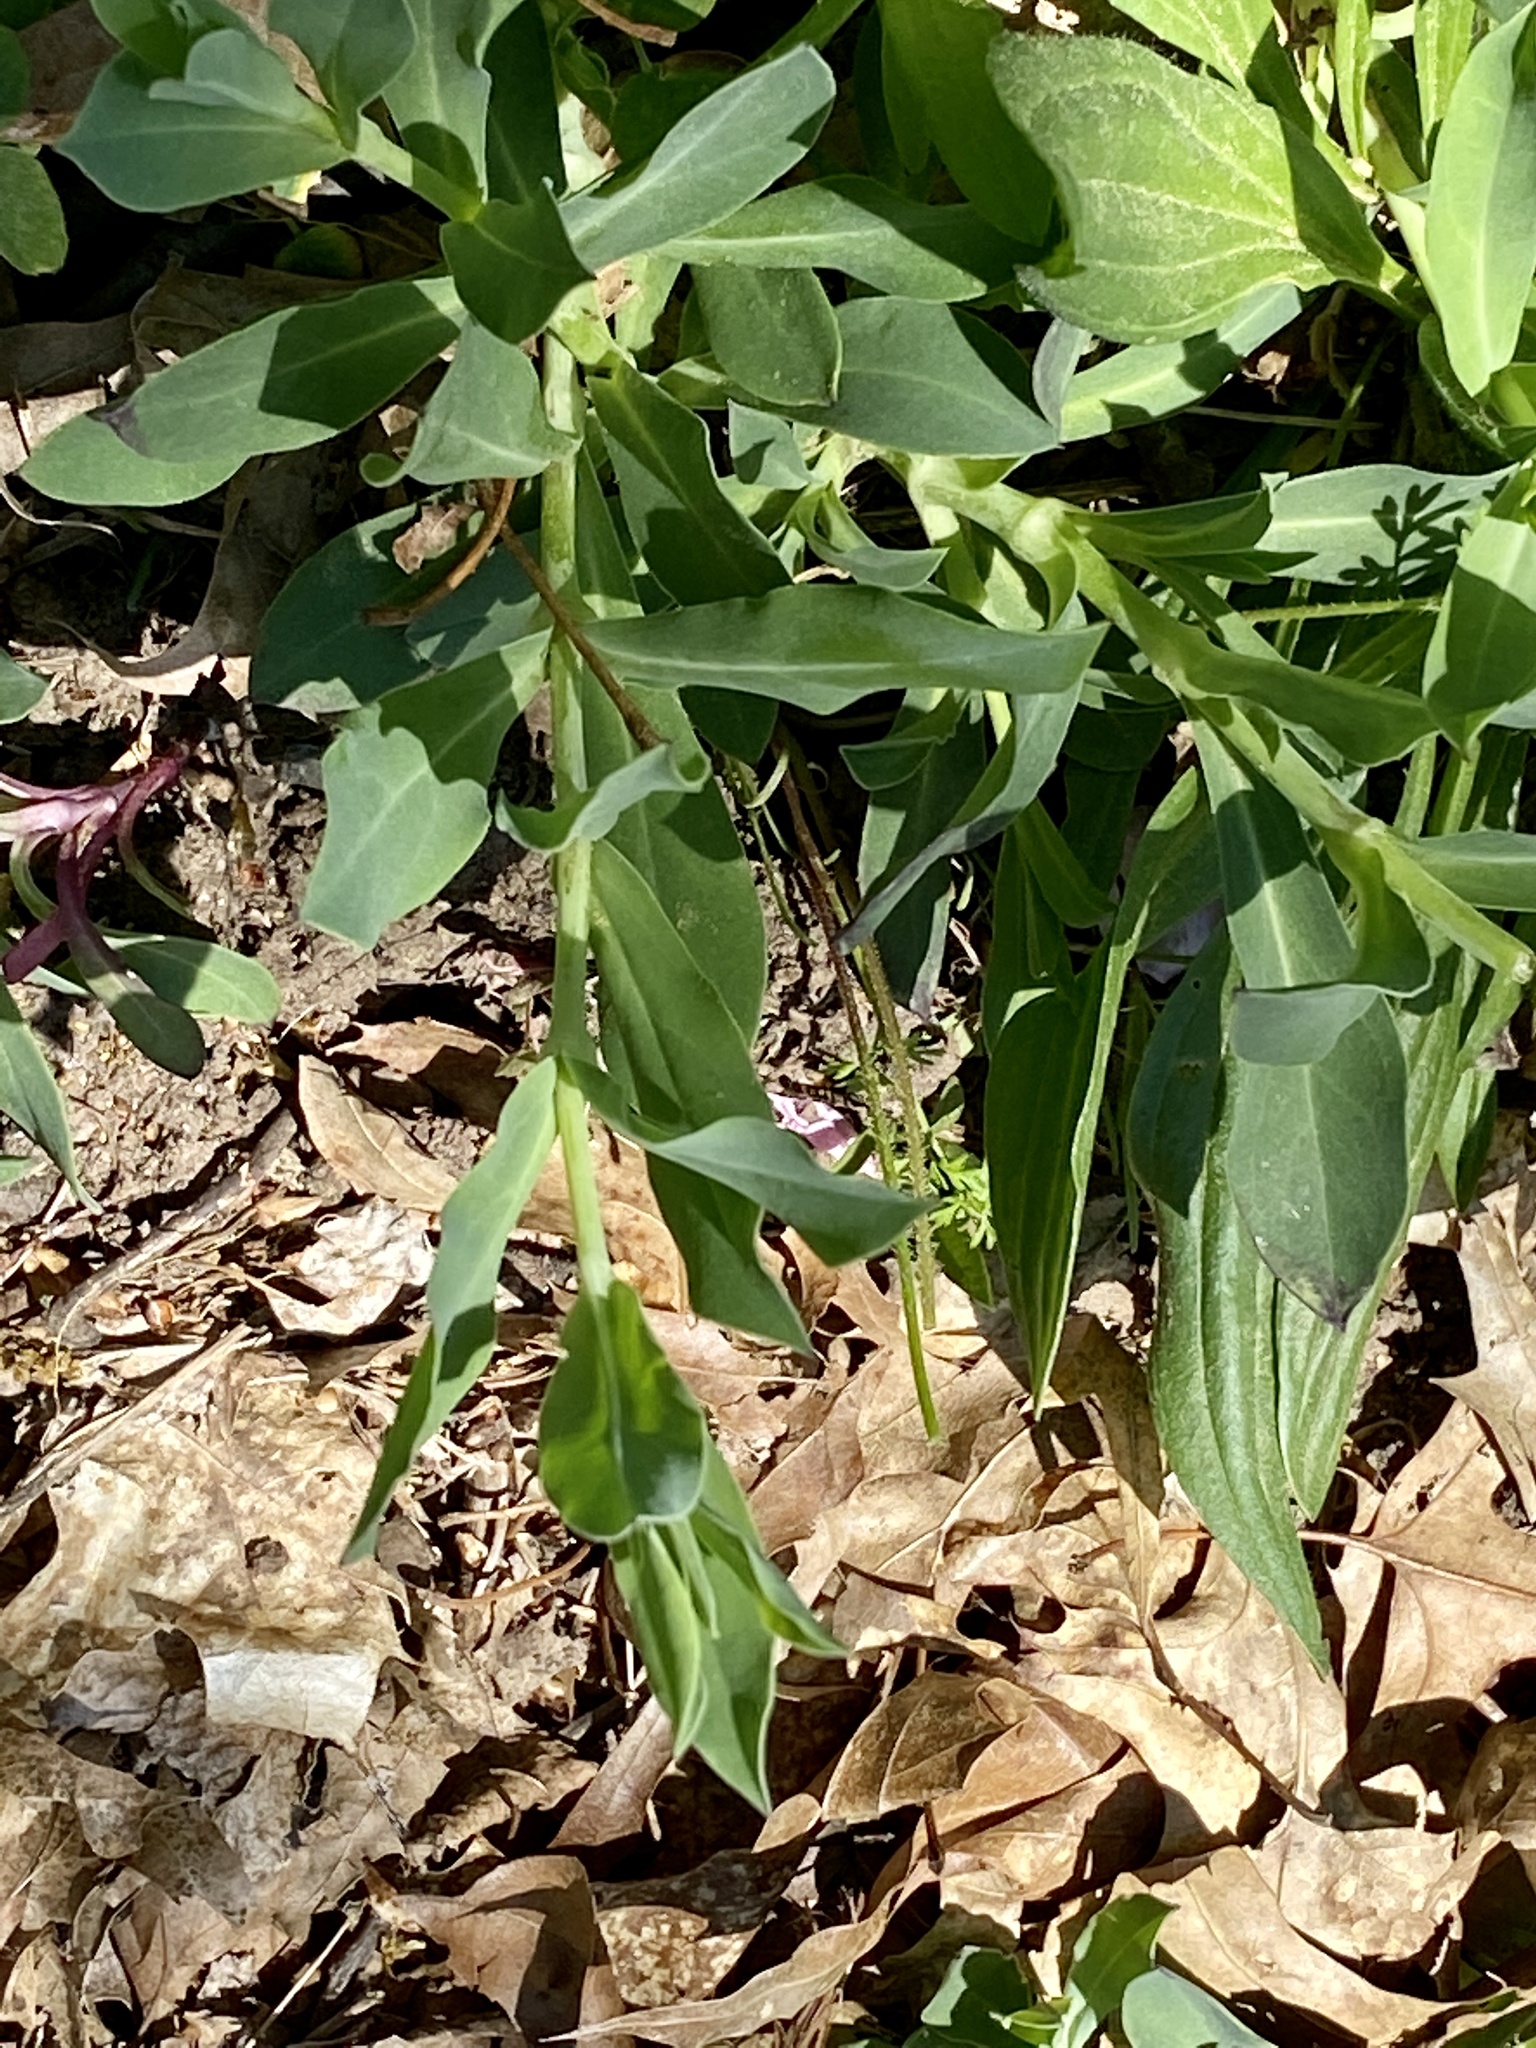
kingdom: Plantae
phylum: Tracheophyta
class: Magnoliopsida
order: Caryophyllales
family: Caryophyllaceae
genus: Silene
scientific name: Silene vulgaris
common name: Bladder campion
